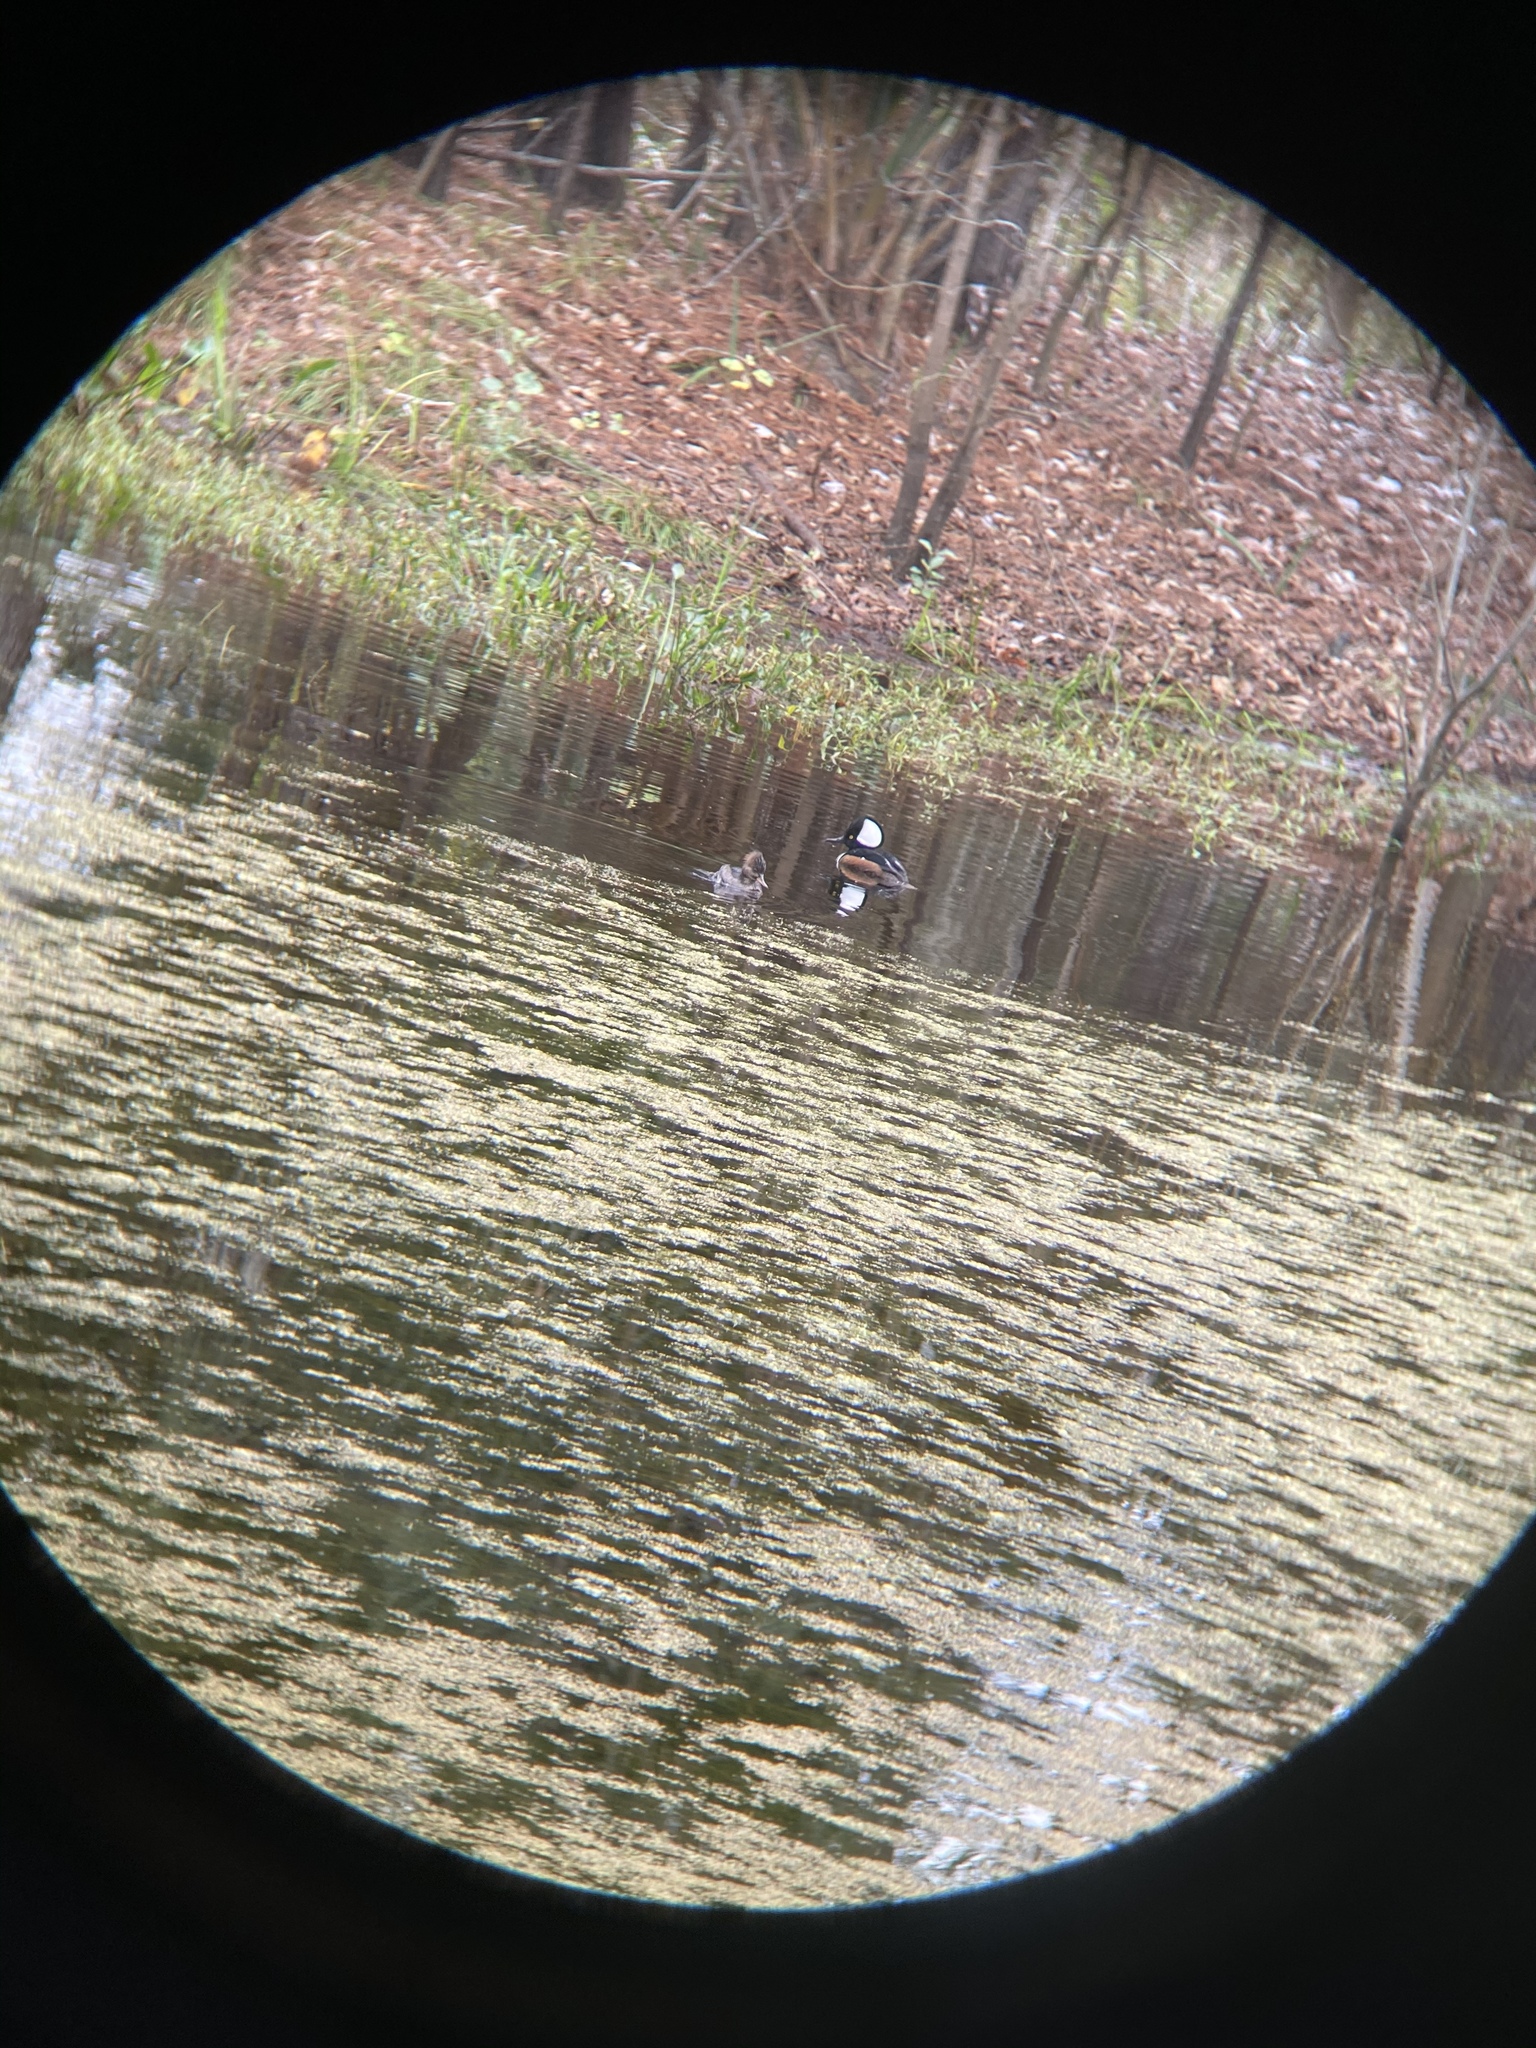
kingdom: Animalia
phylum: Chordata
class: Aves
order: Anseriformes
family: Anatidae
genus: Lophodytes
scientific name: Lophodytes cucullatus
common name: Hooded merganser
